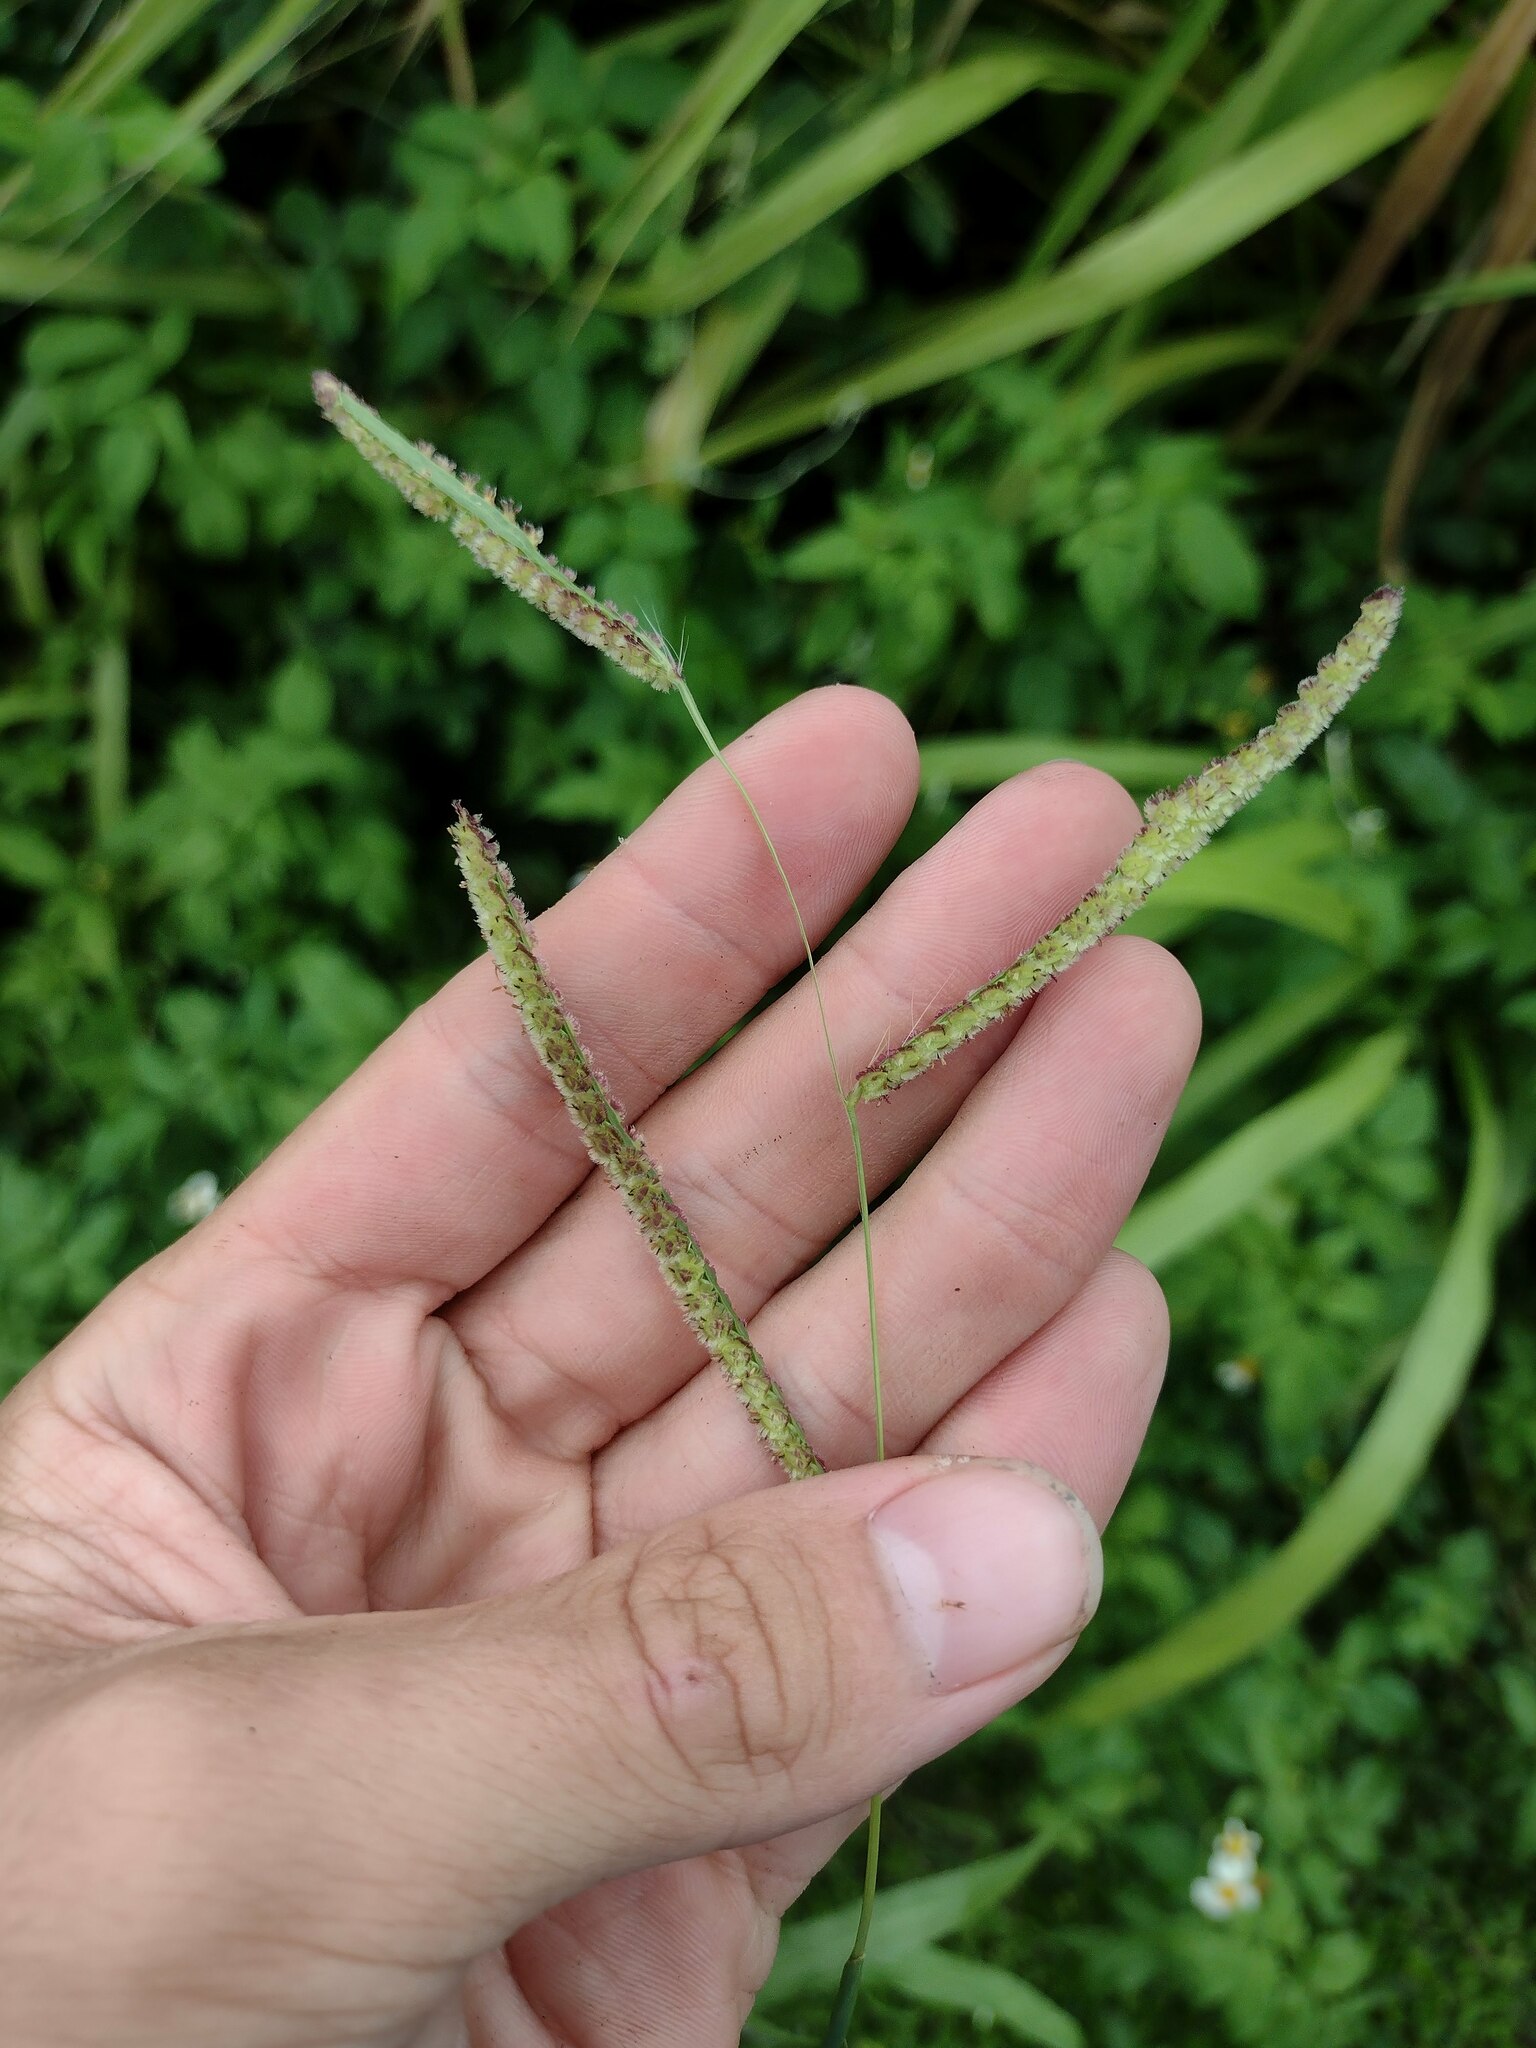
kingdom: Plantae
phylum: Tracheophyta
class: Liliopsida
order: Poales
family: Poaceae
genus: Paspalum
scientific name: Paspalum fimbriatum
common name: Panama crowngrass
